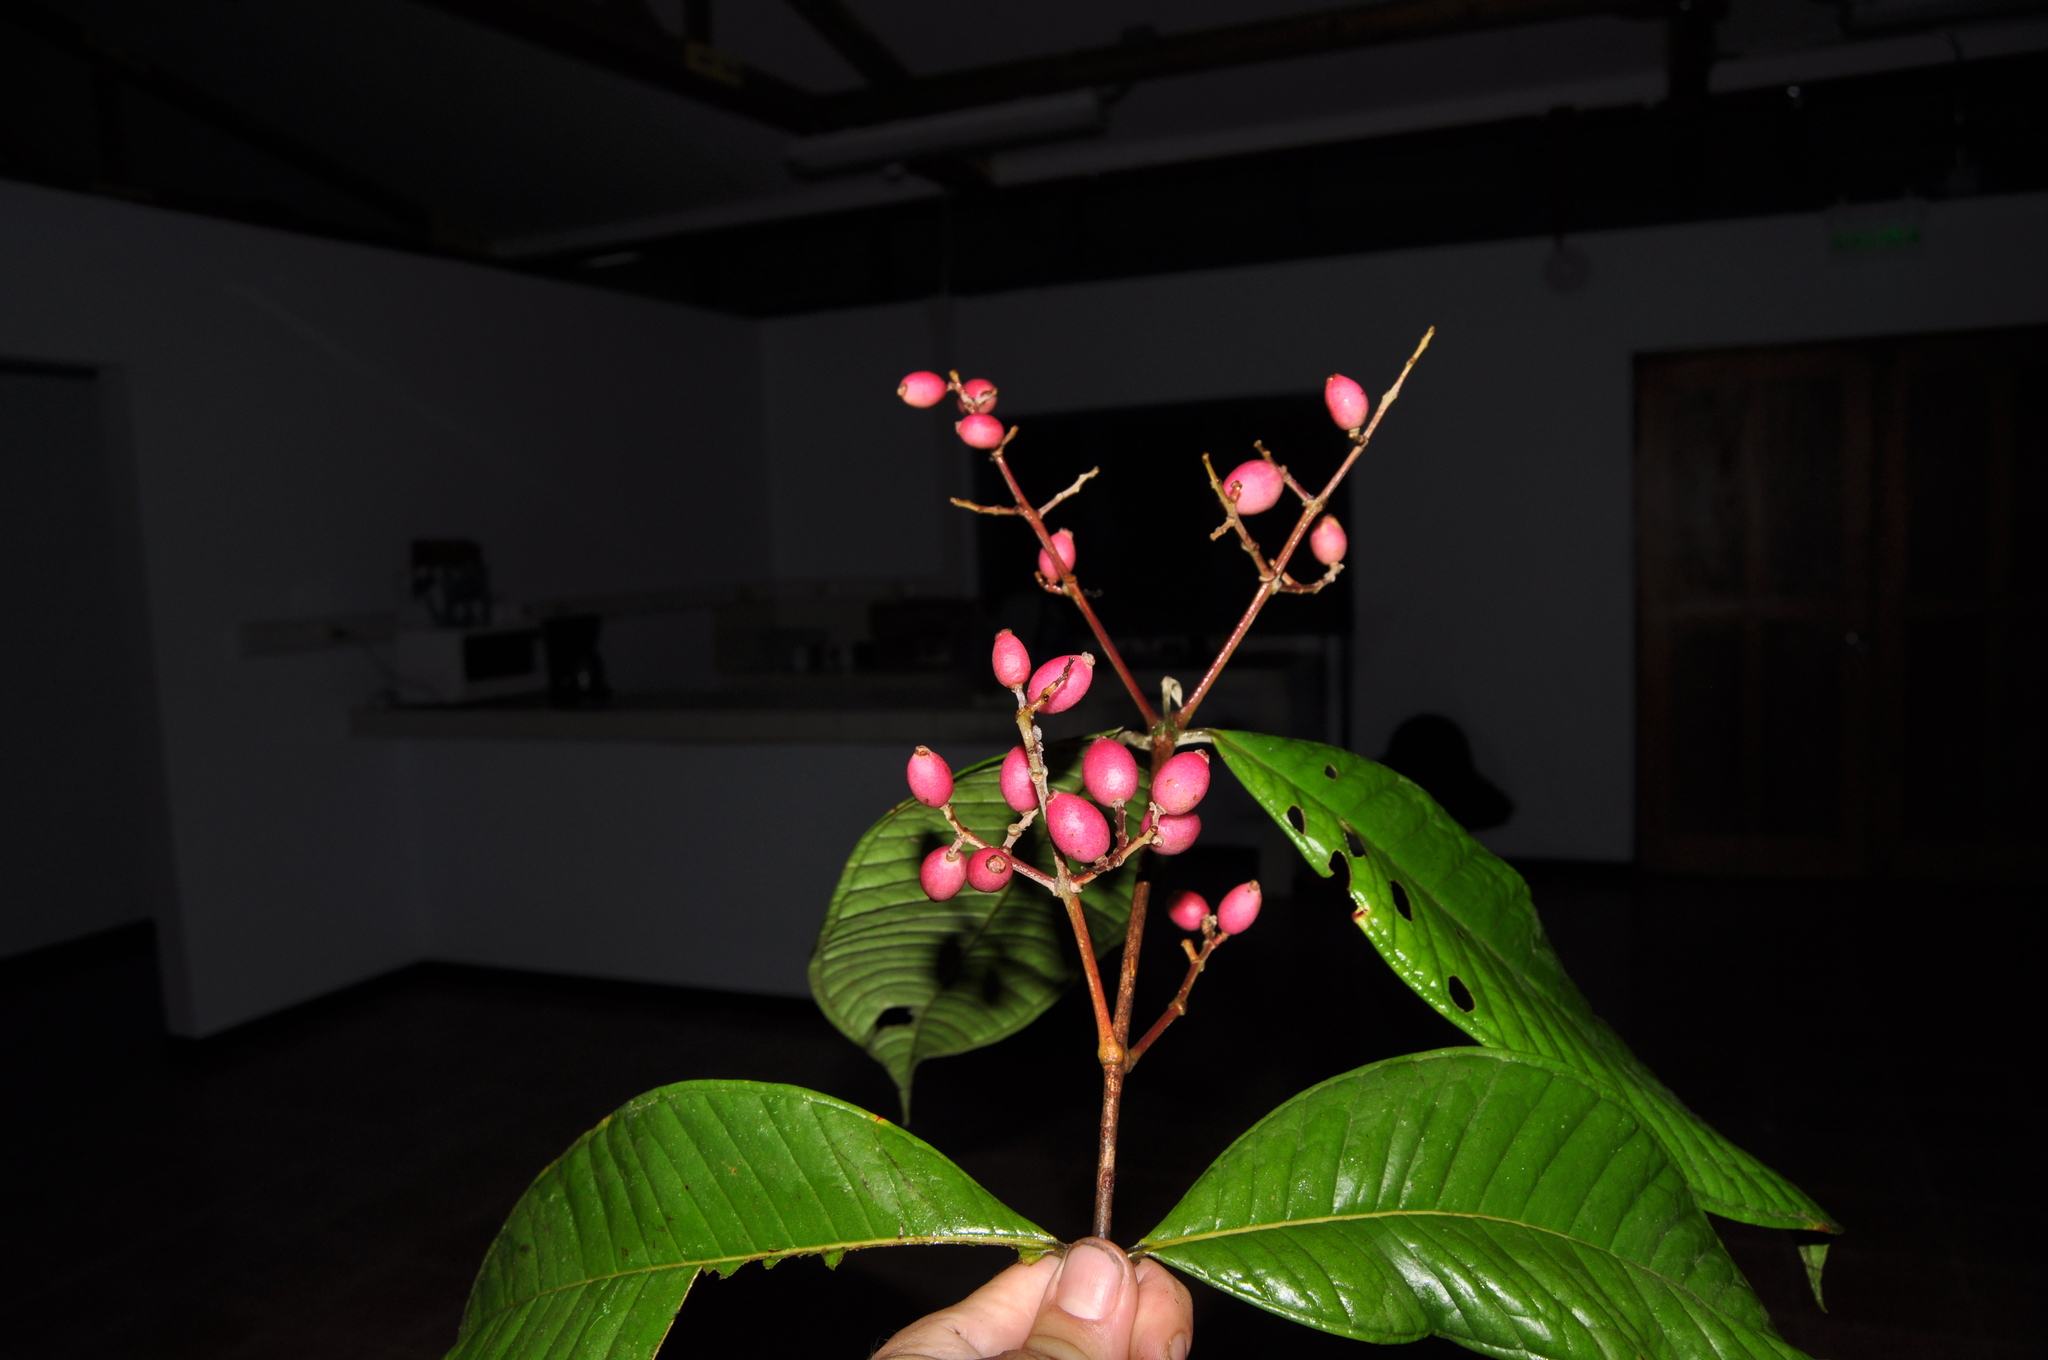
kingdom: Plantae
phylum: Tracheophyta
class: Magnoliopsida
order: Myrtales
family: Myrtaceae
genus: Myrcia
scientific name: Myrcia paulii-jonesii
